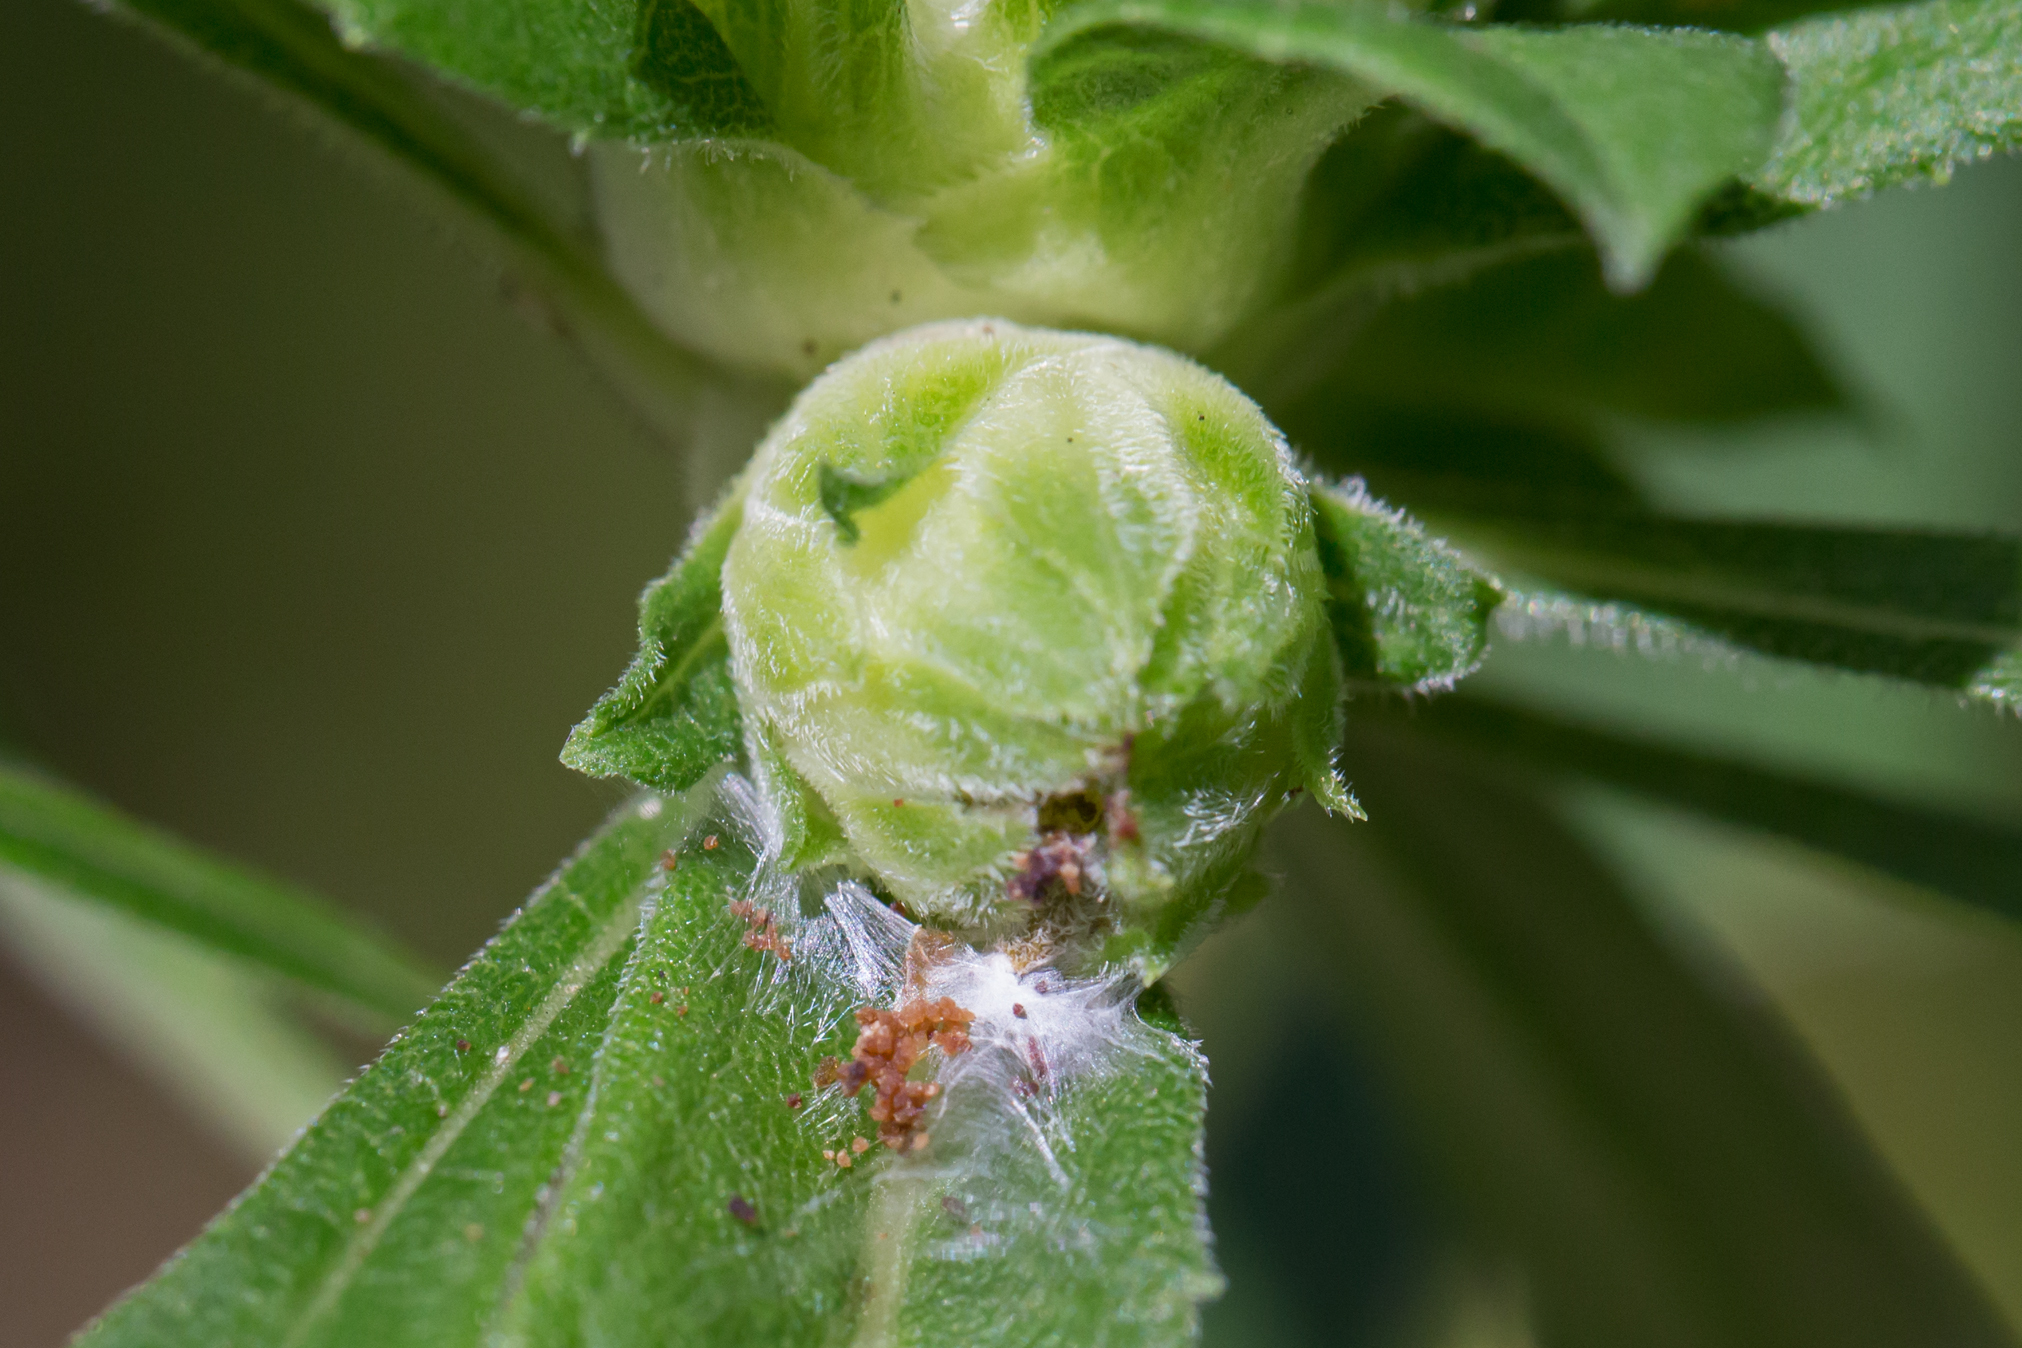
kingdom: Animalia
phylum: Arthropoda
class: Insecta
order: Diptera
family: Tephritidae
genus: Procecidochares
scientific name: Procecidochares atra
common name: Goldenrod brussels sprout gall fly
